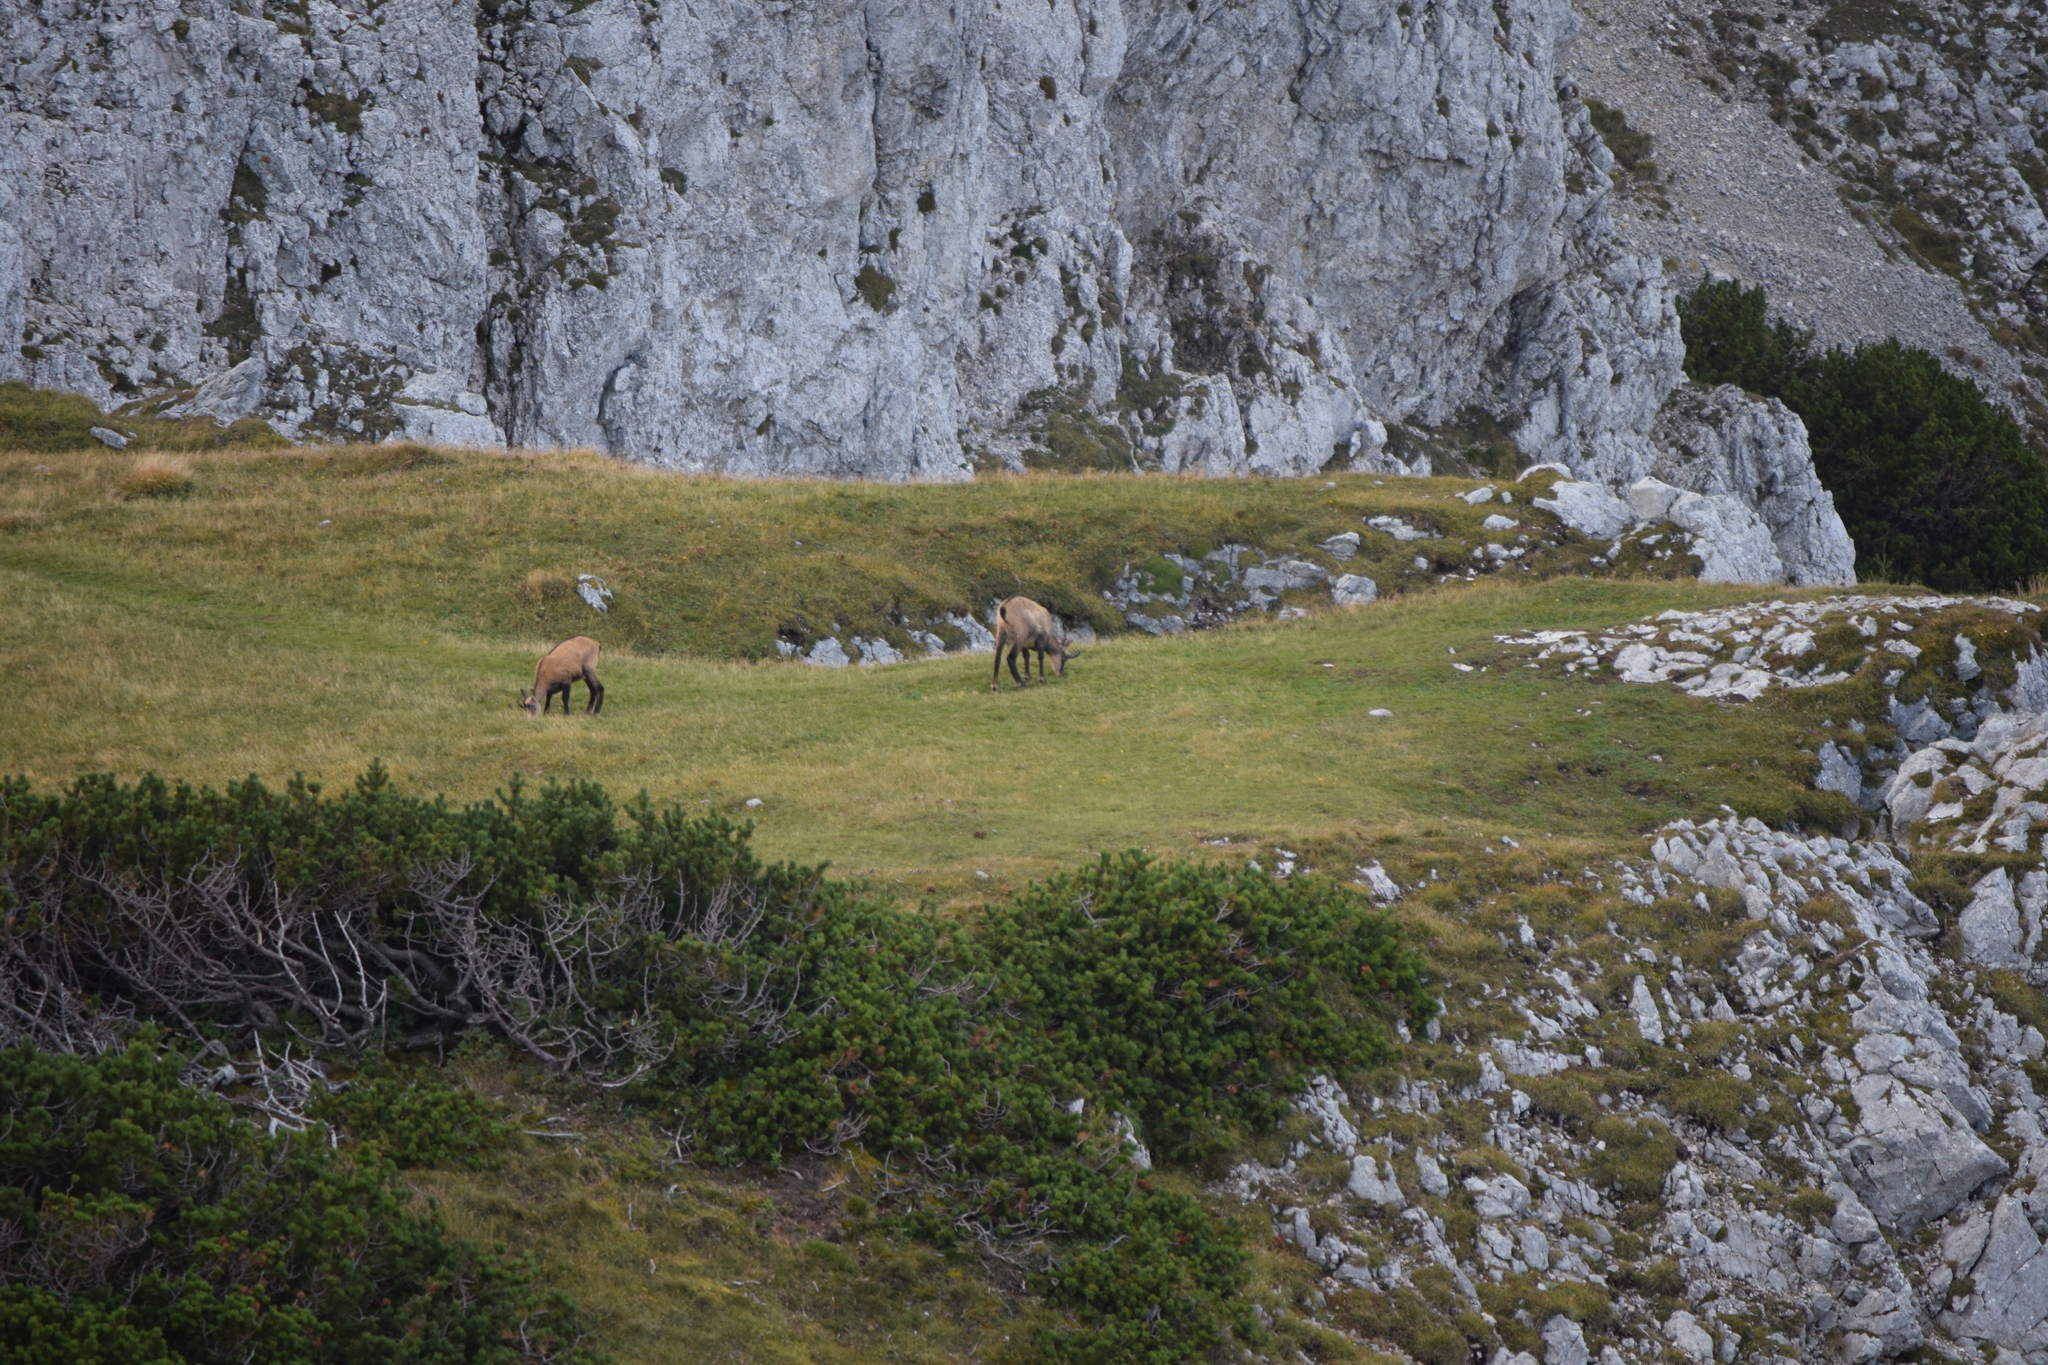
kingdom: Animalia
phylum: Chordata
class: Mammalia
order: Artiodactyla
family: Bovidae
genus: Rupicapra
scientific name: Rupicapra rupicapra
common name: Chamois
